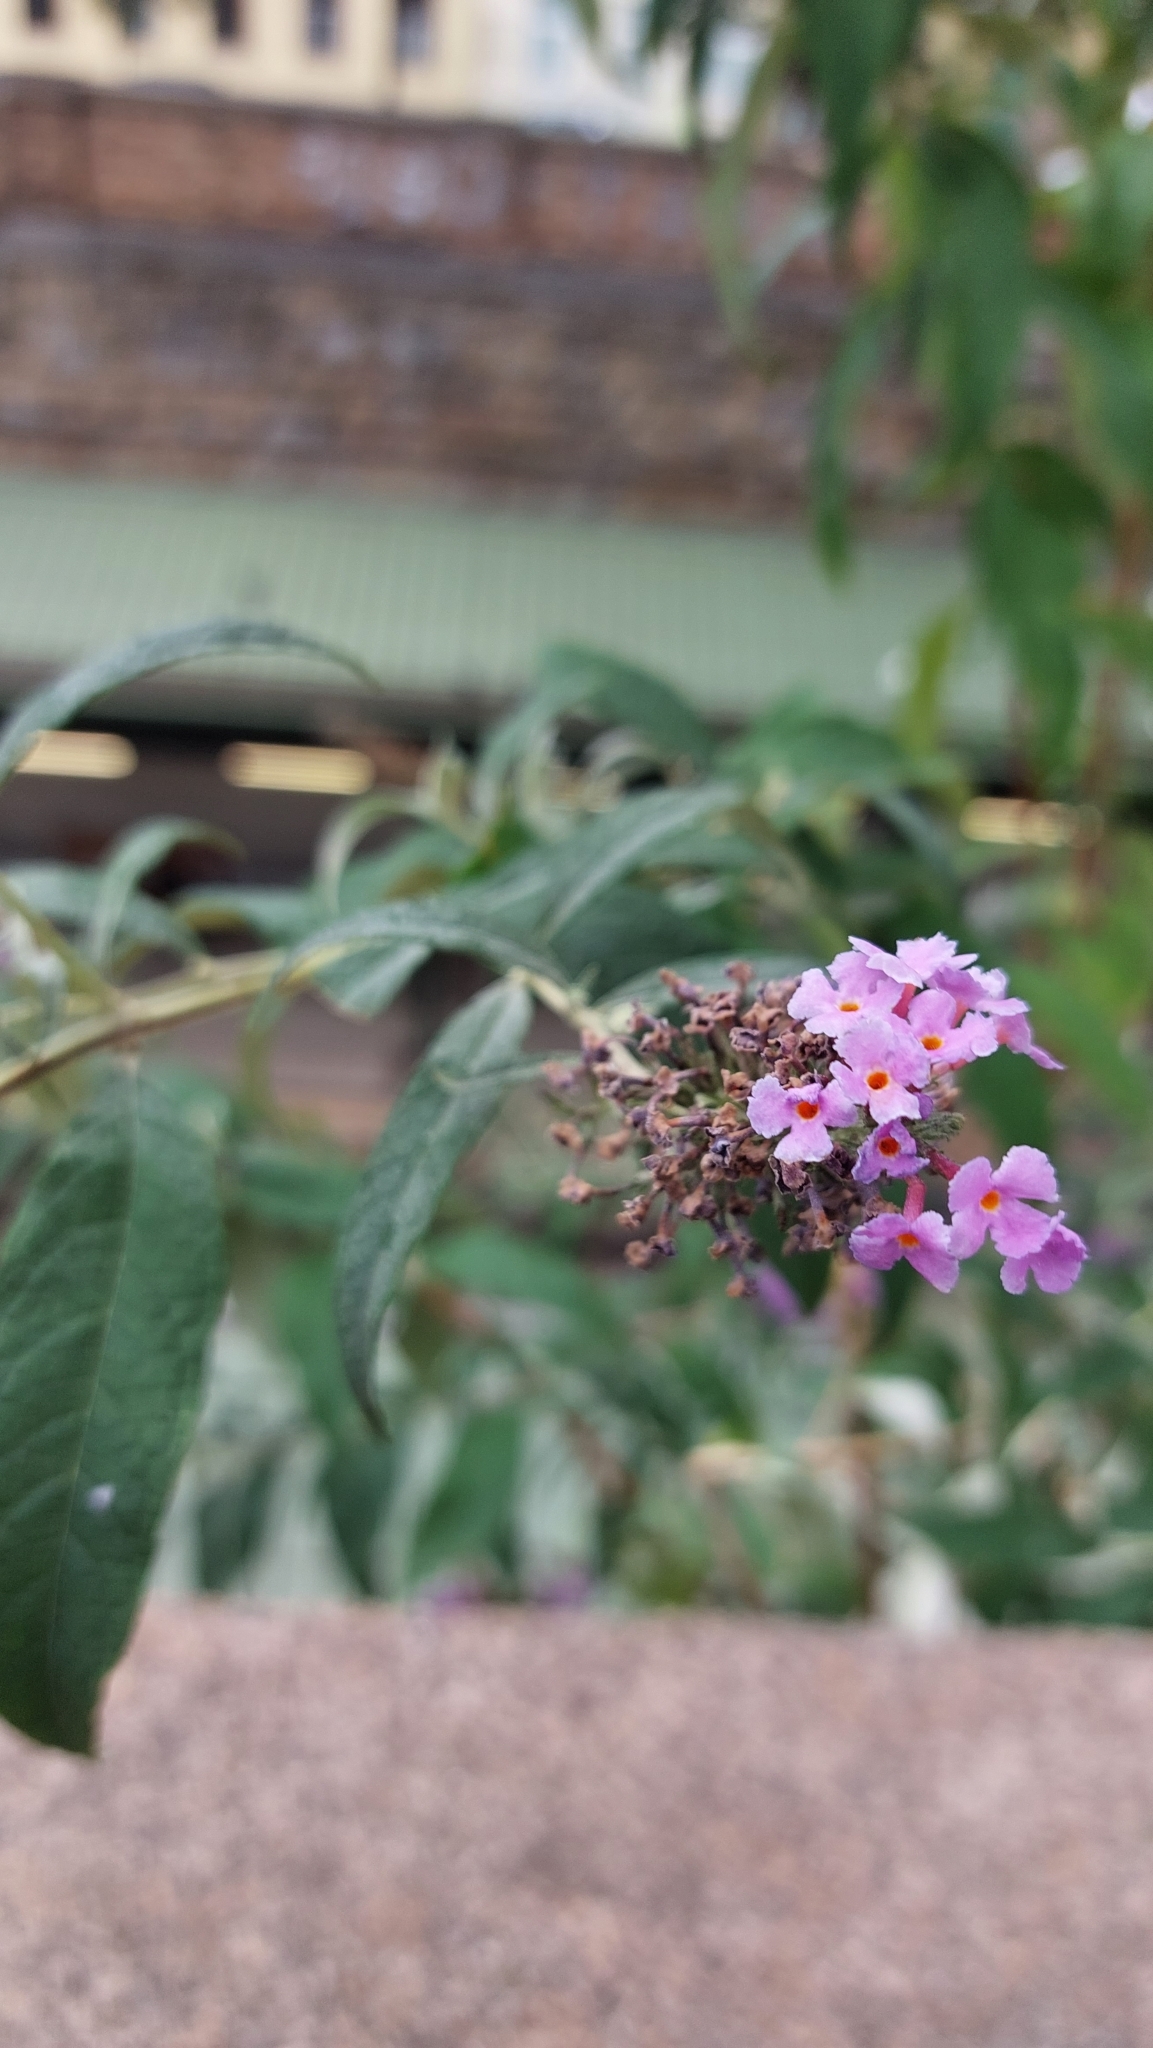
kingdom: Plantae
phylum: Tracheophyta
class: Magnoliopsida
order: Lamiales
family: Scrophulariaceae
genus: Buddleja
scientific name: Buddleja davidii
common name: Butterfly-bush
